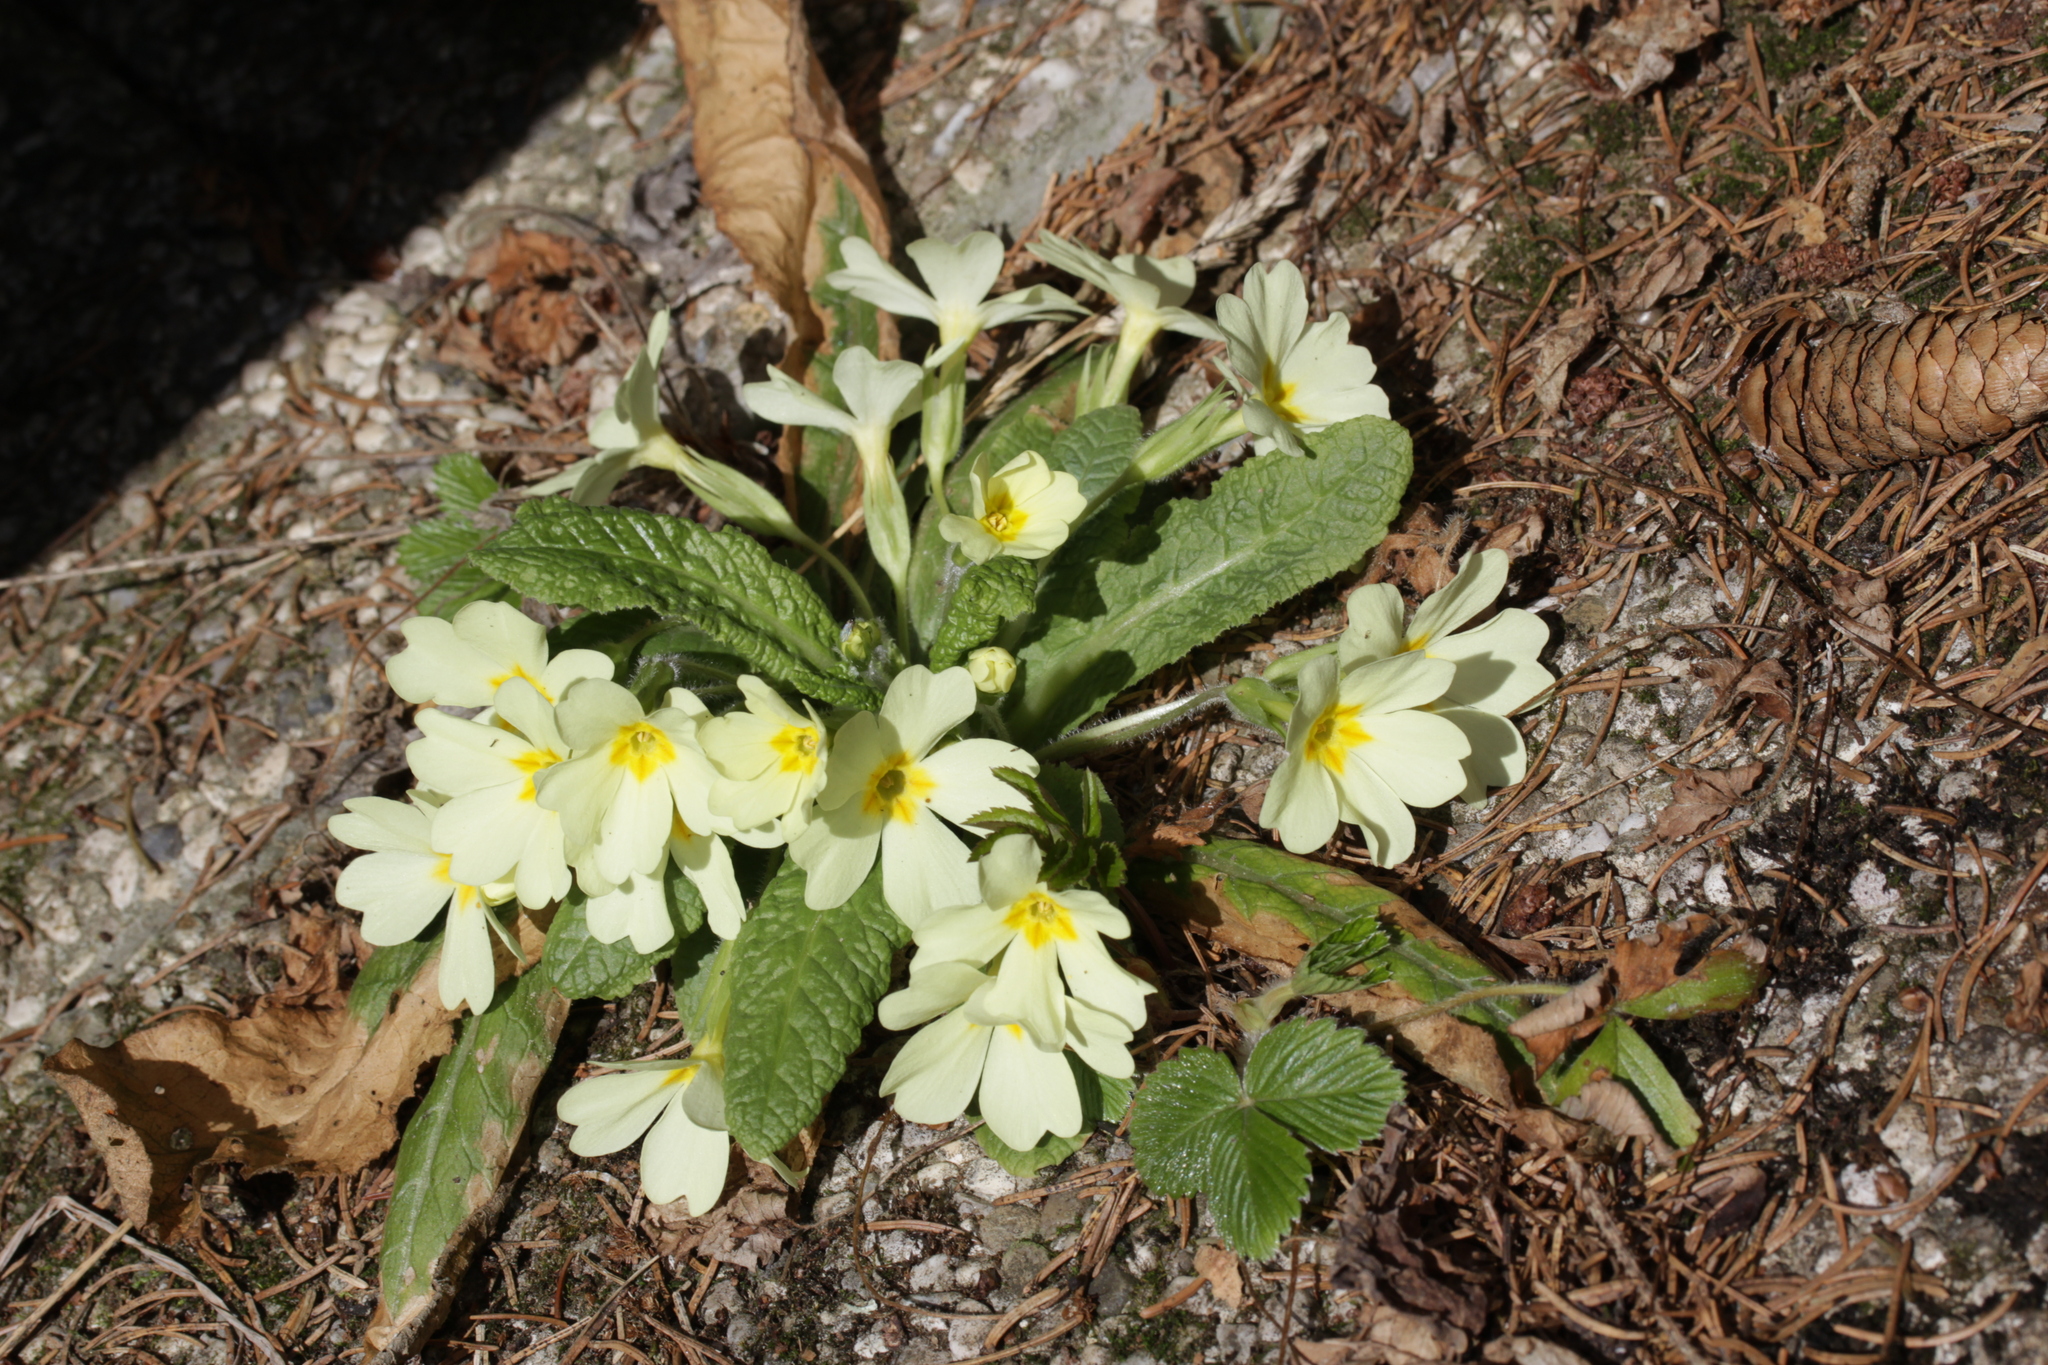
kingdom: Plantae
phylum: Tracheophyta
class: Magnoliopsida
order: Ericales
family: Primulaceae
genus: Primula
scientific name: Primula vulgaris
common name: Primrose
